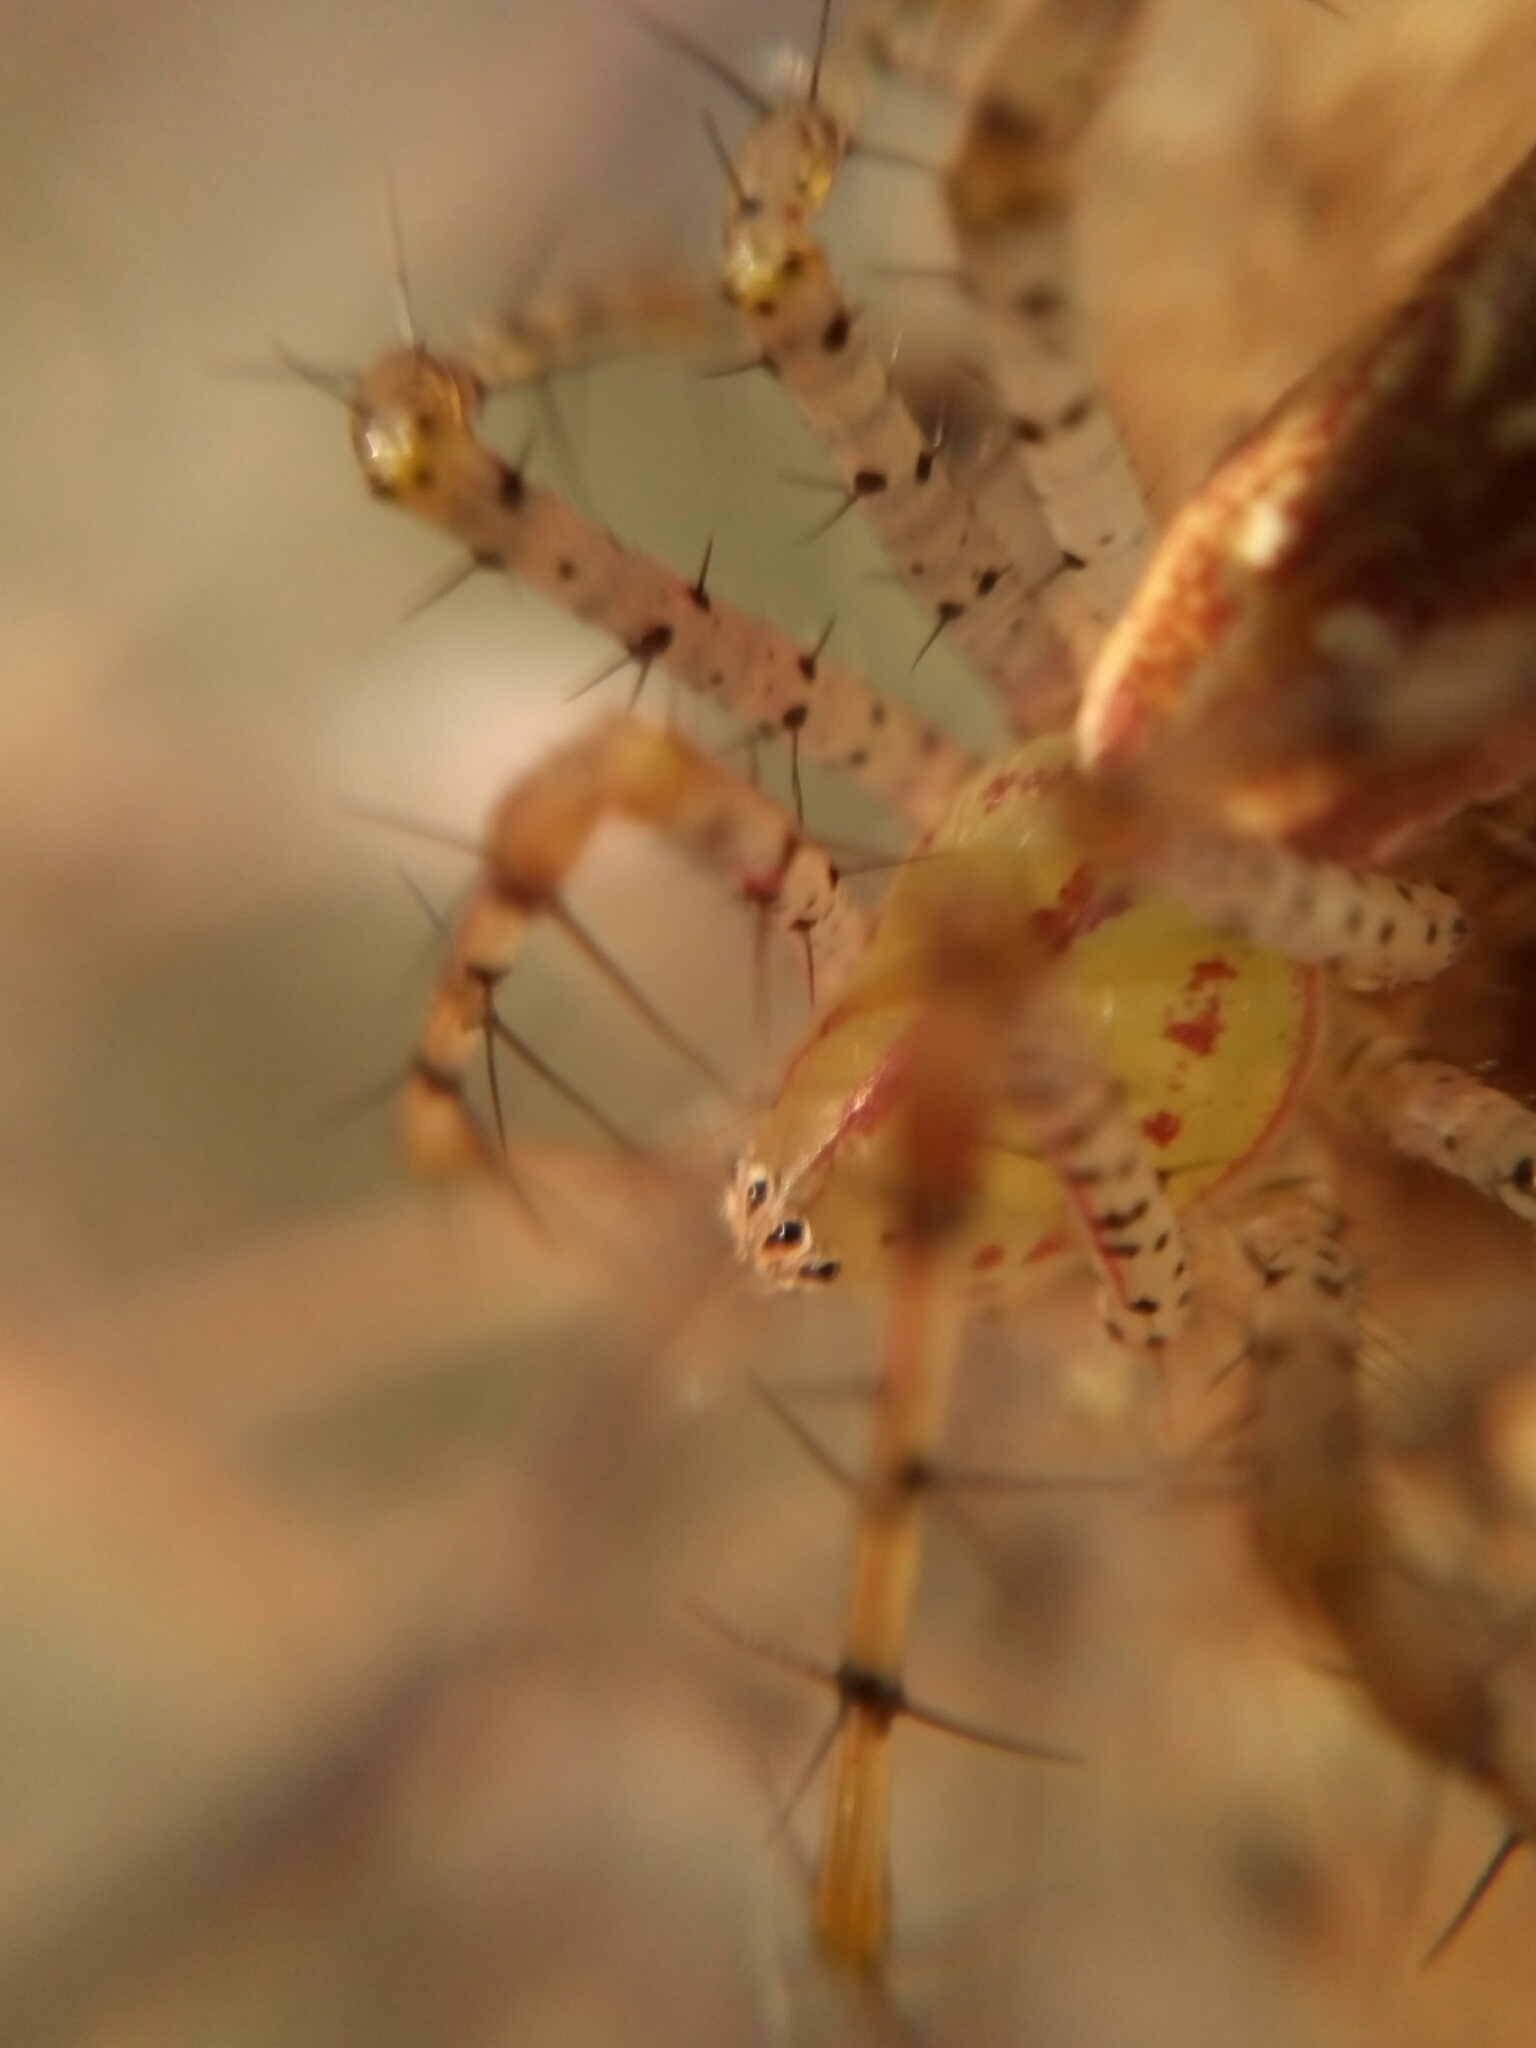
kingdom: Animalia
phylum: Arthropoda
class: Arachnida
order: Araneae
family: Oxyopidae
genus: Peucetia
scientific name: Peucetia viridans
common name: Lynx spiders
